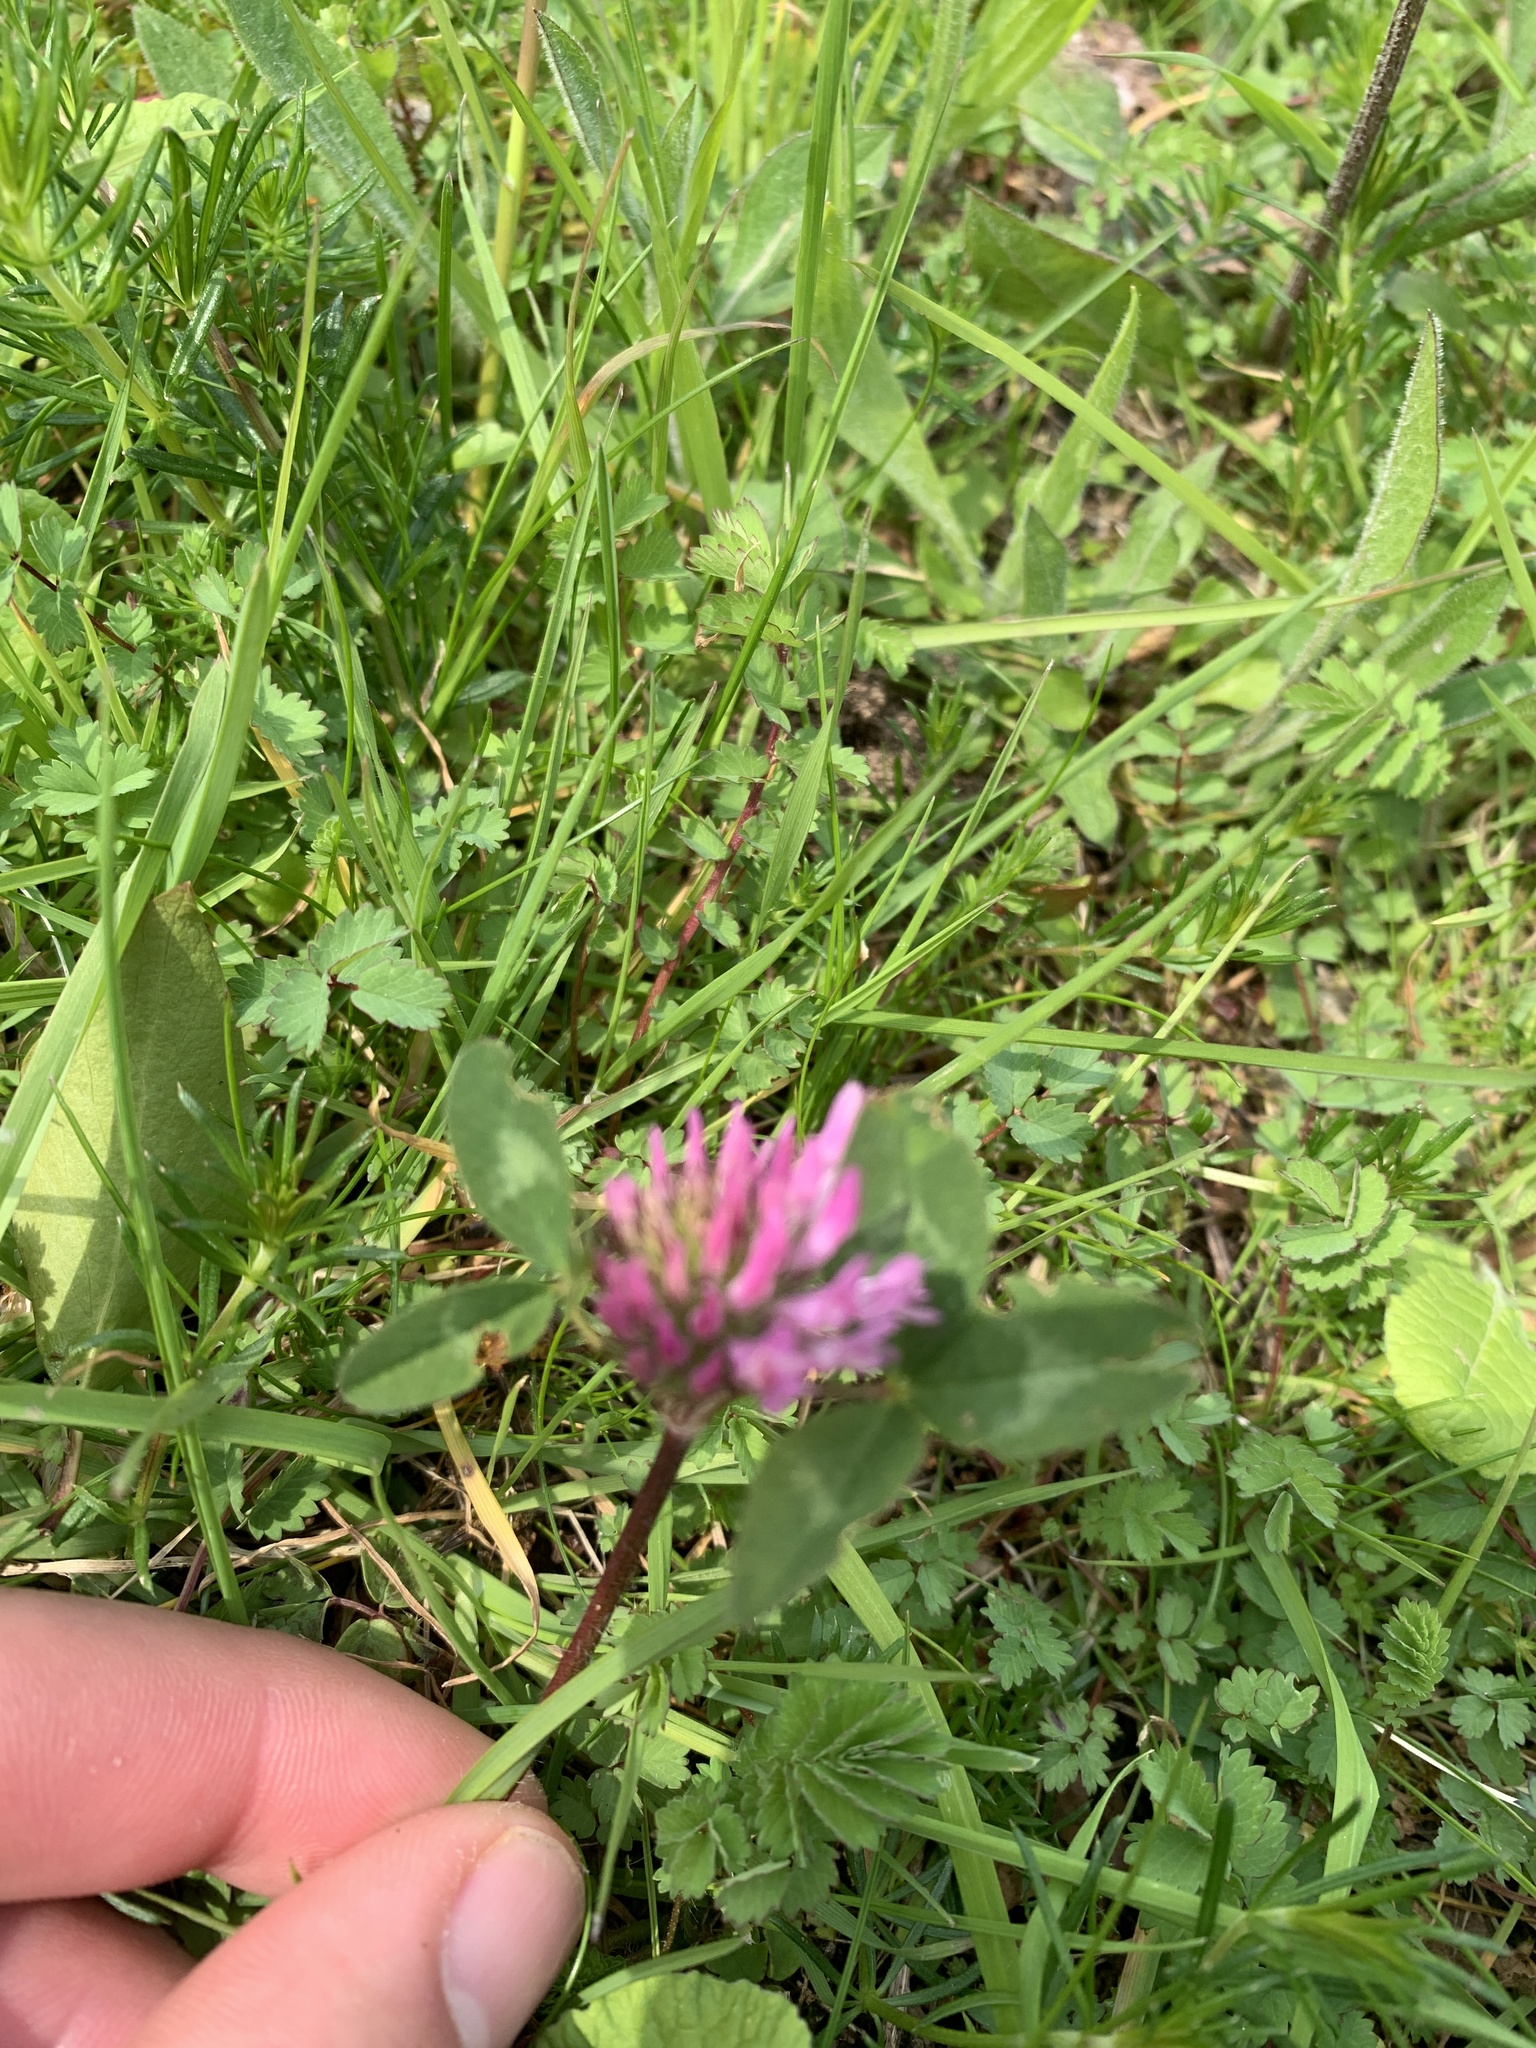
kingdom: Plantae
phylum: Tracheophyta
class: Magnoliopsida
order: Fabales
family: Fabaceae
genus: Trifolium
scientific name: Trifolium pratense
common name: Red clover
